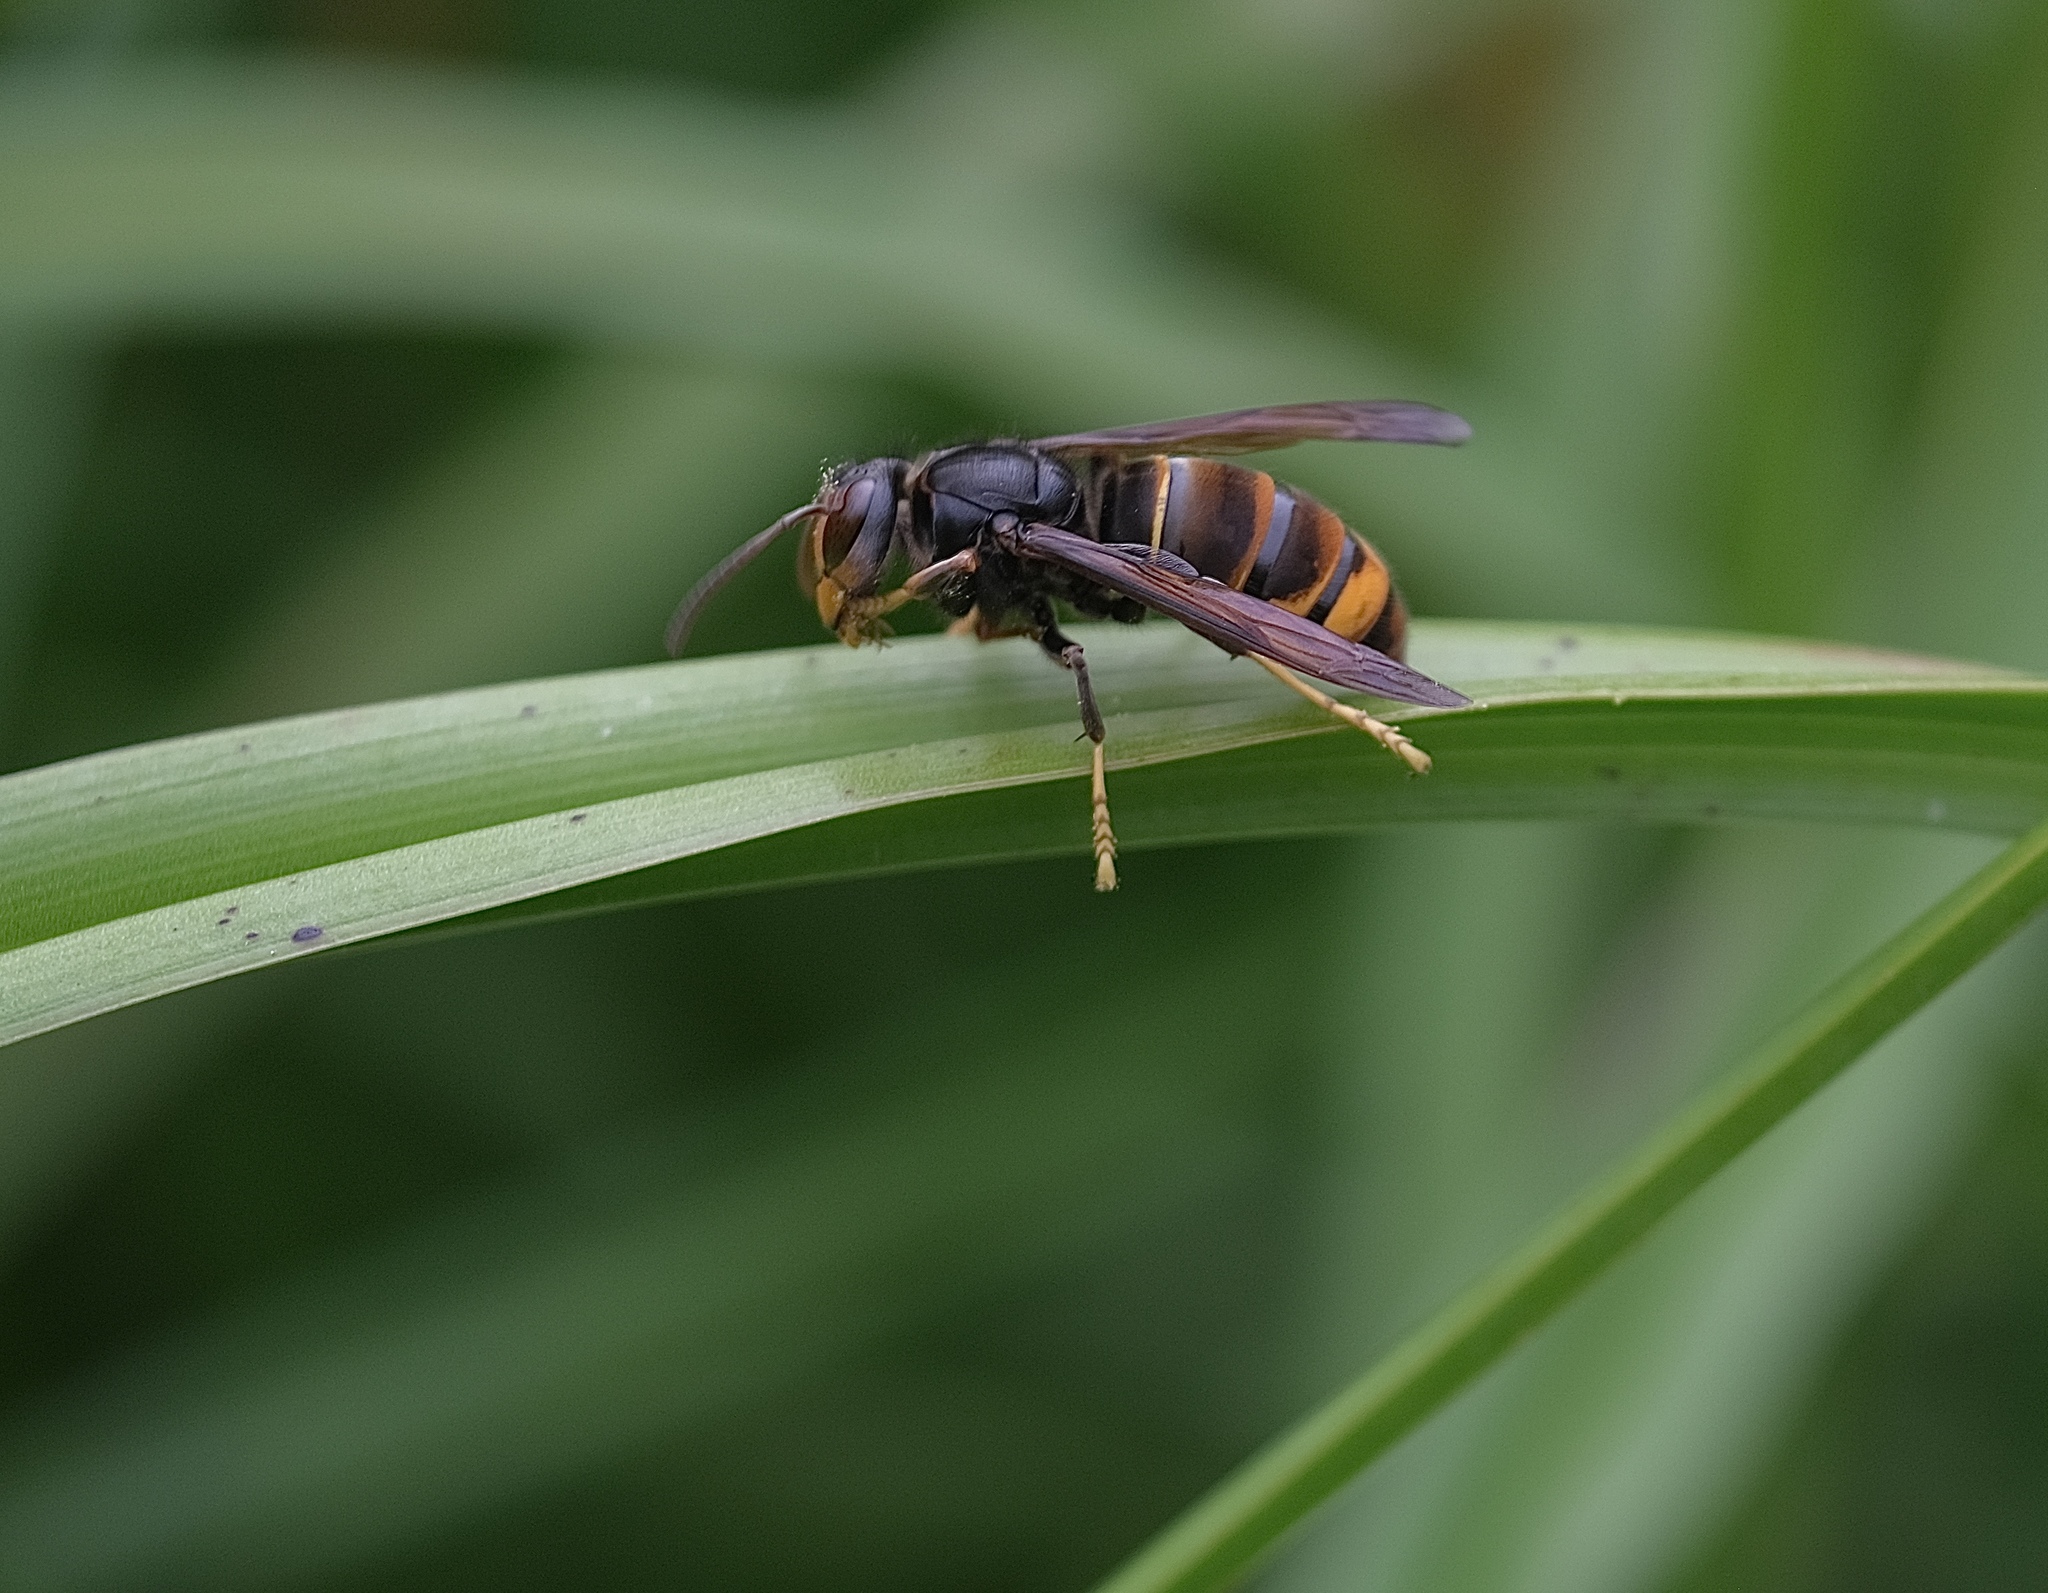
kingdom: Animalia
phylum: Arthropoda
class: Insecta
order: Hymenoptera
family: Vespidae
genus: Vespa
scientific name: Vespa velutina
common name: Asian hornet
